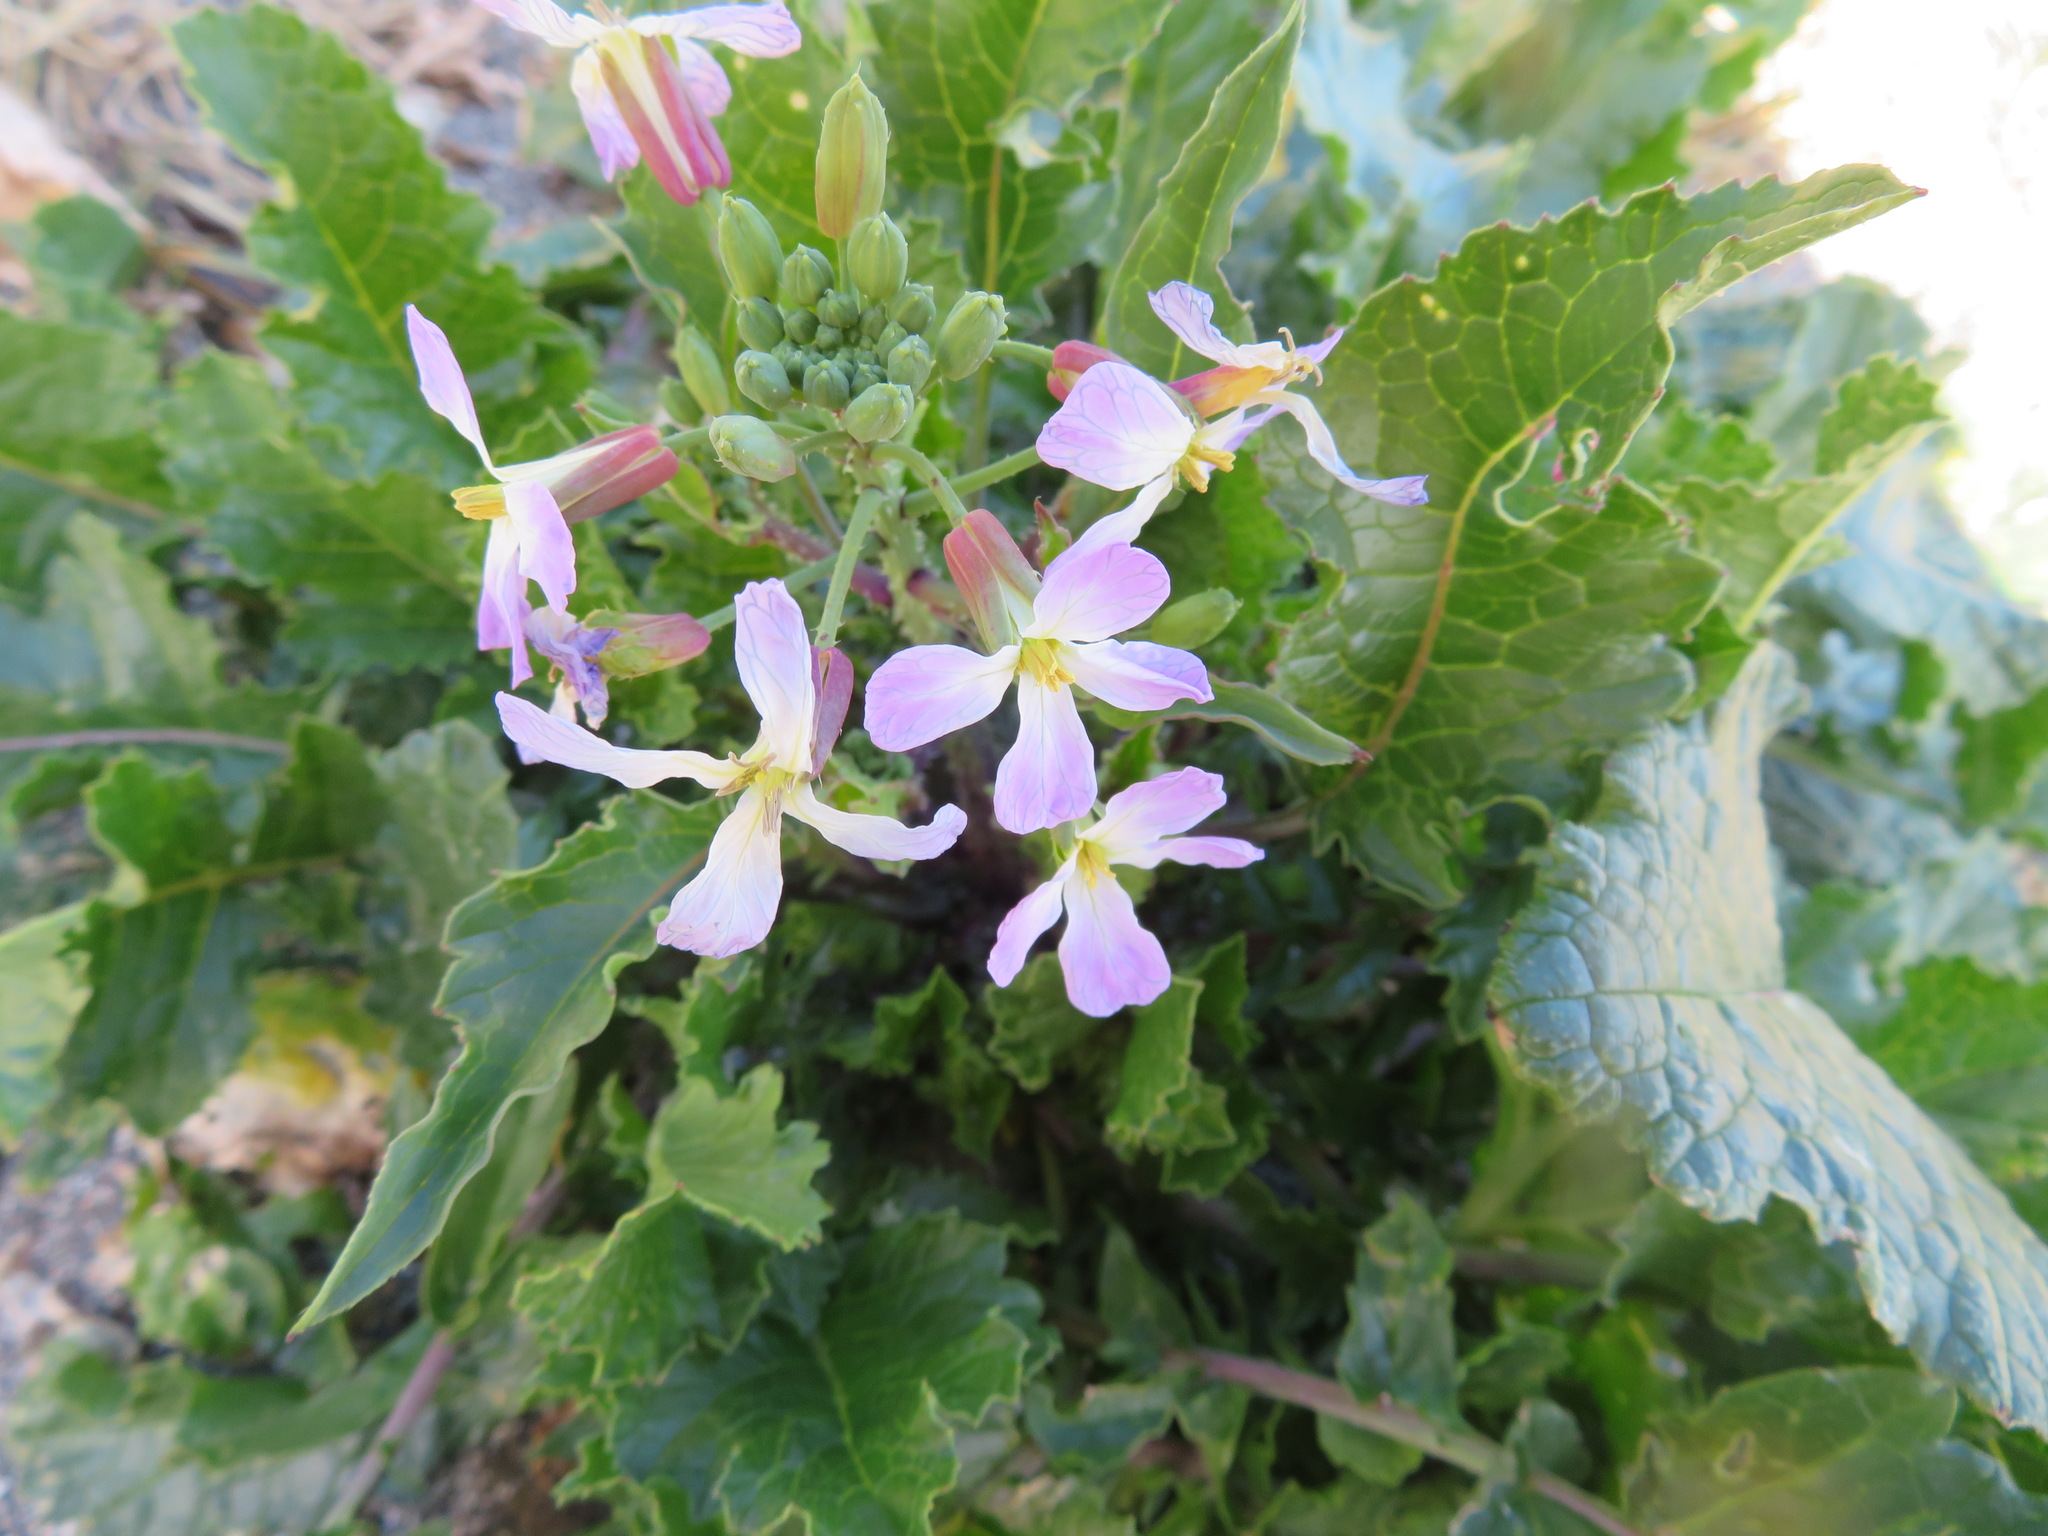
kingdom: Plantae
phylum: Tracheophyta
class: Magnoliopsida
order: Brassicales
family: Brassicaceae
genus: Raphanus
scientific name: Raphanus sativus
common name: Cultivated radish
